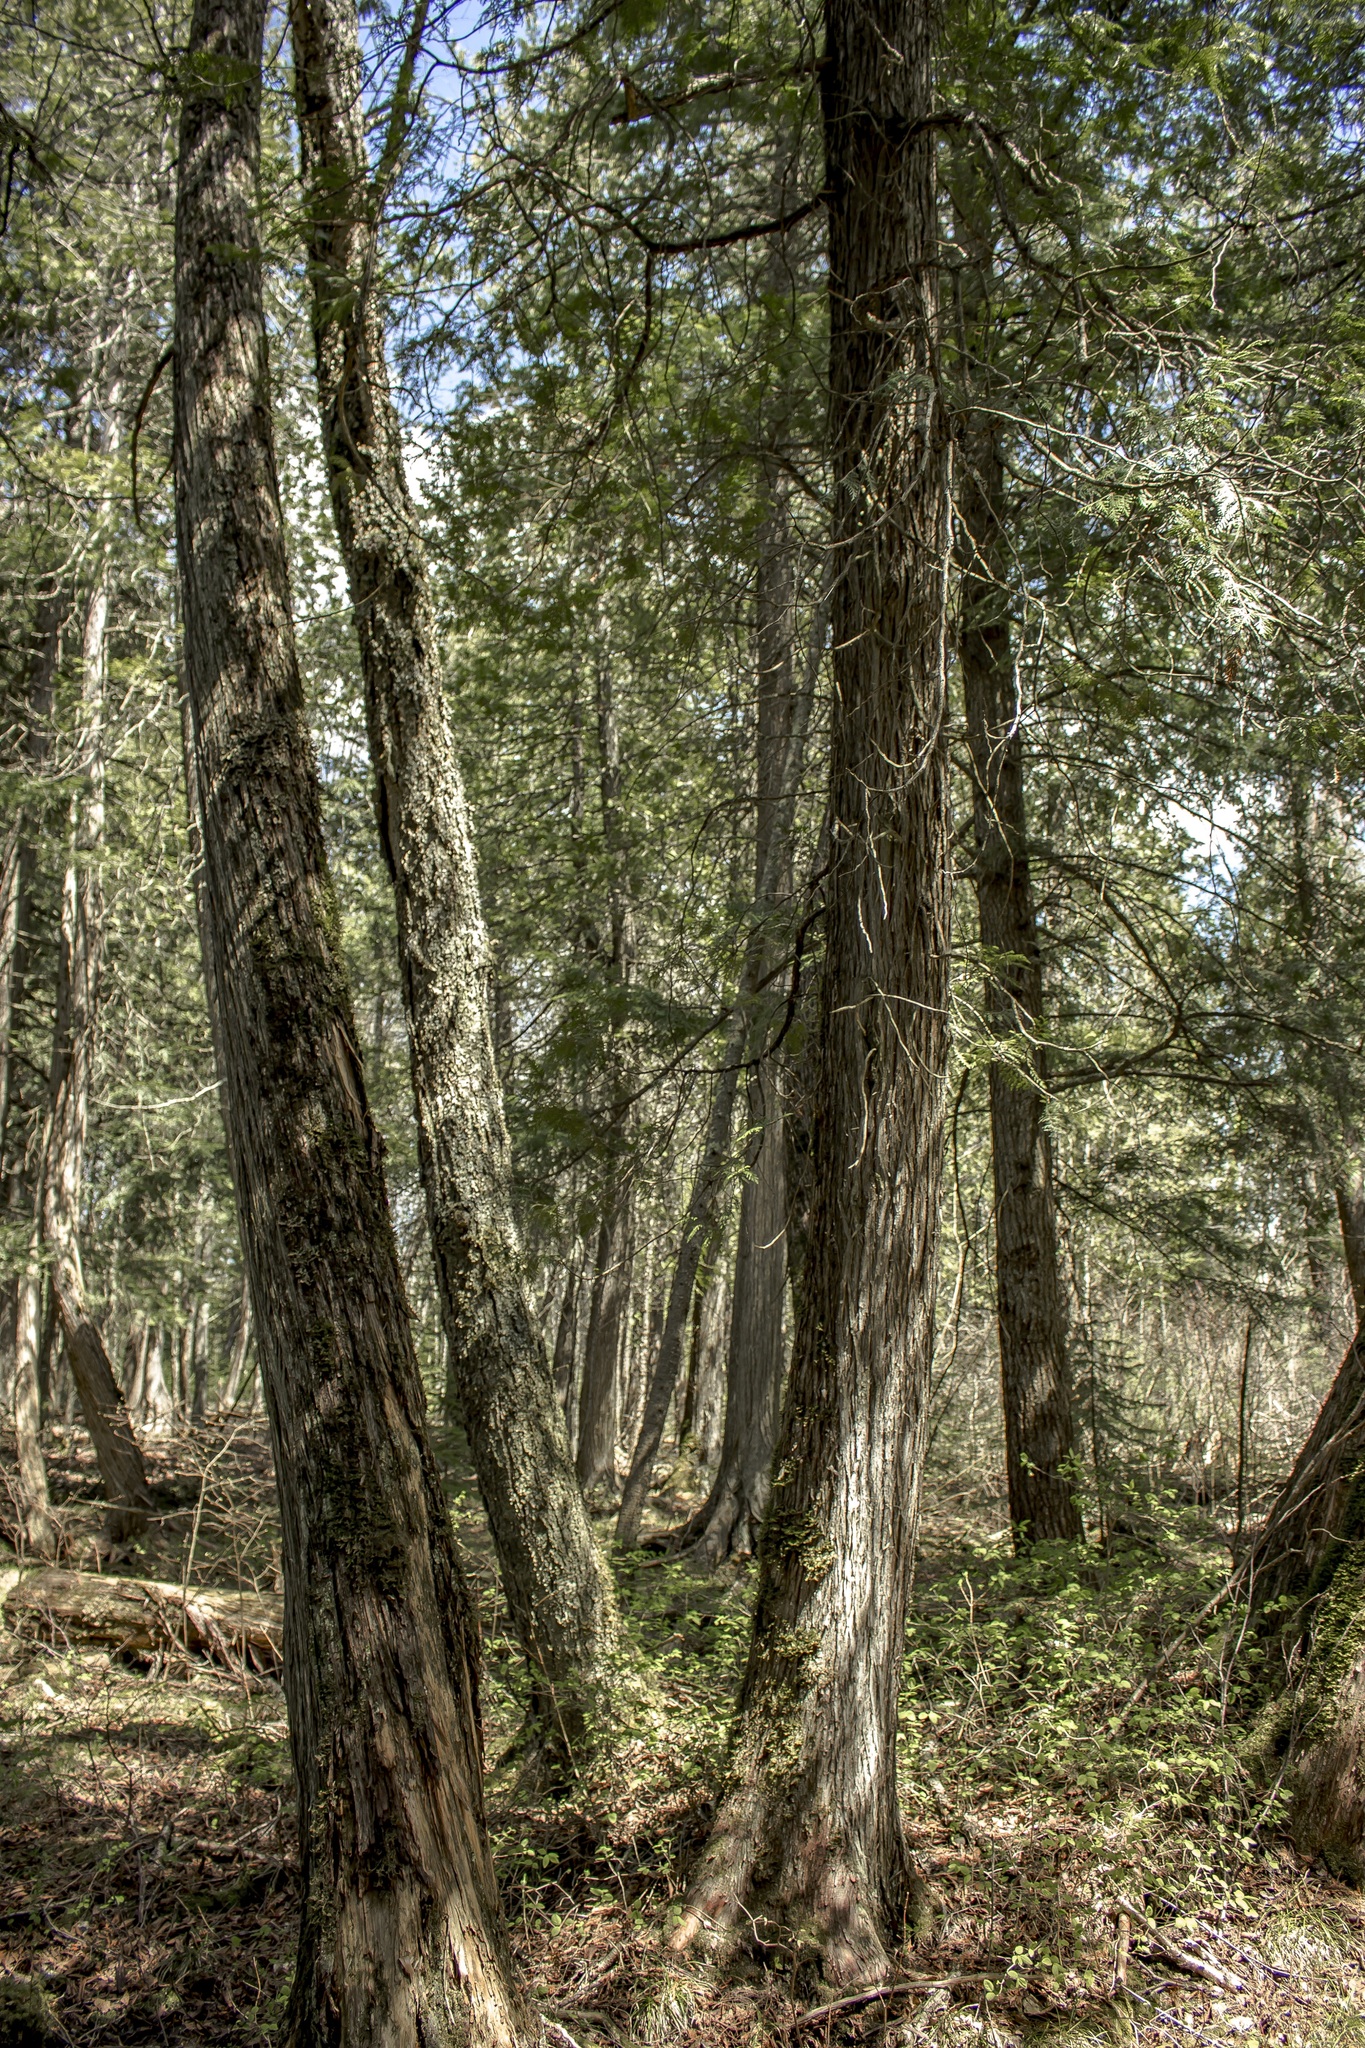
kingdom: Plantae
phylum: Tracheophyta
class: Pinopsida
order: Pinales
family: Cupressaceae
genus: Thuja
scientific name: Thuja occidentalis
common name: Northern white-cedar
